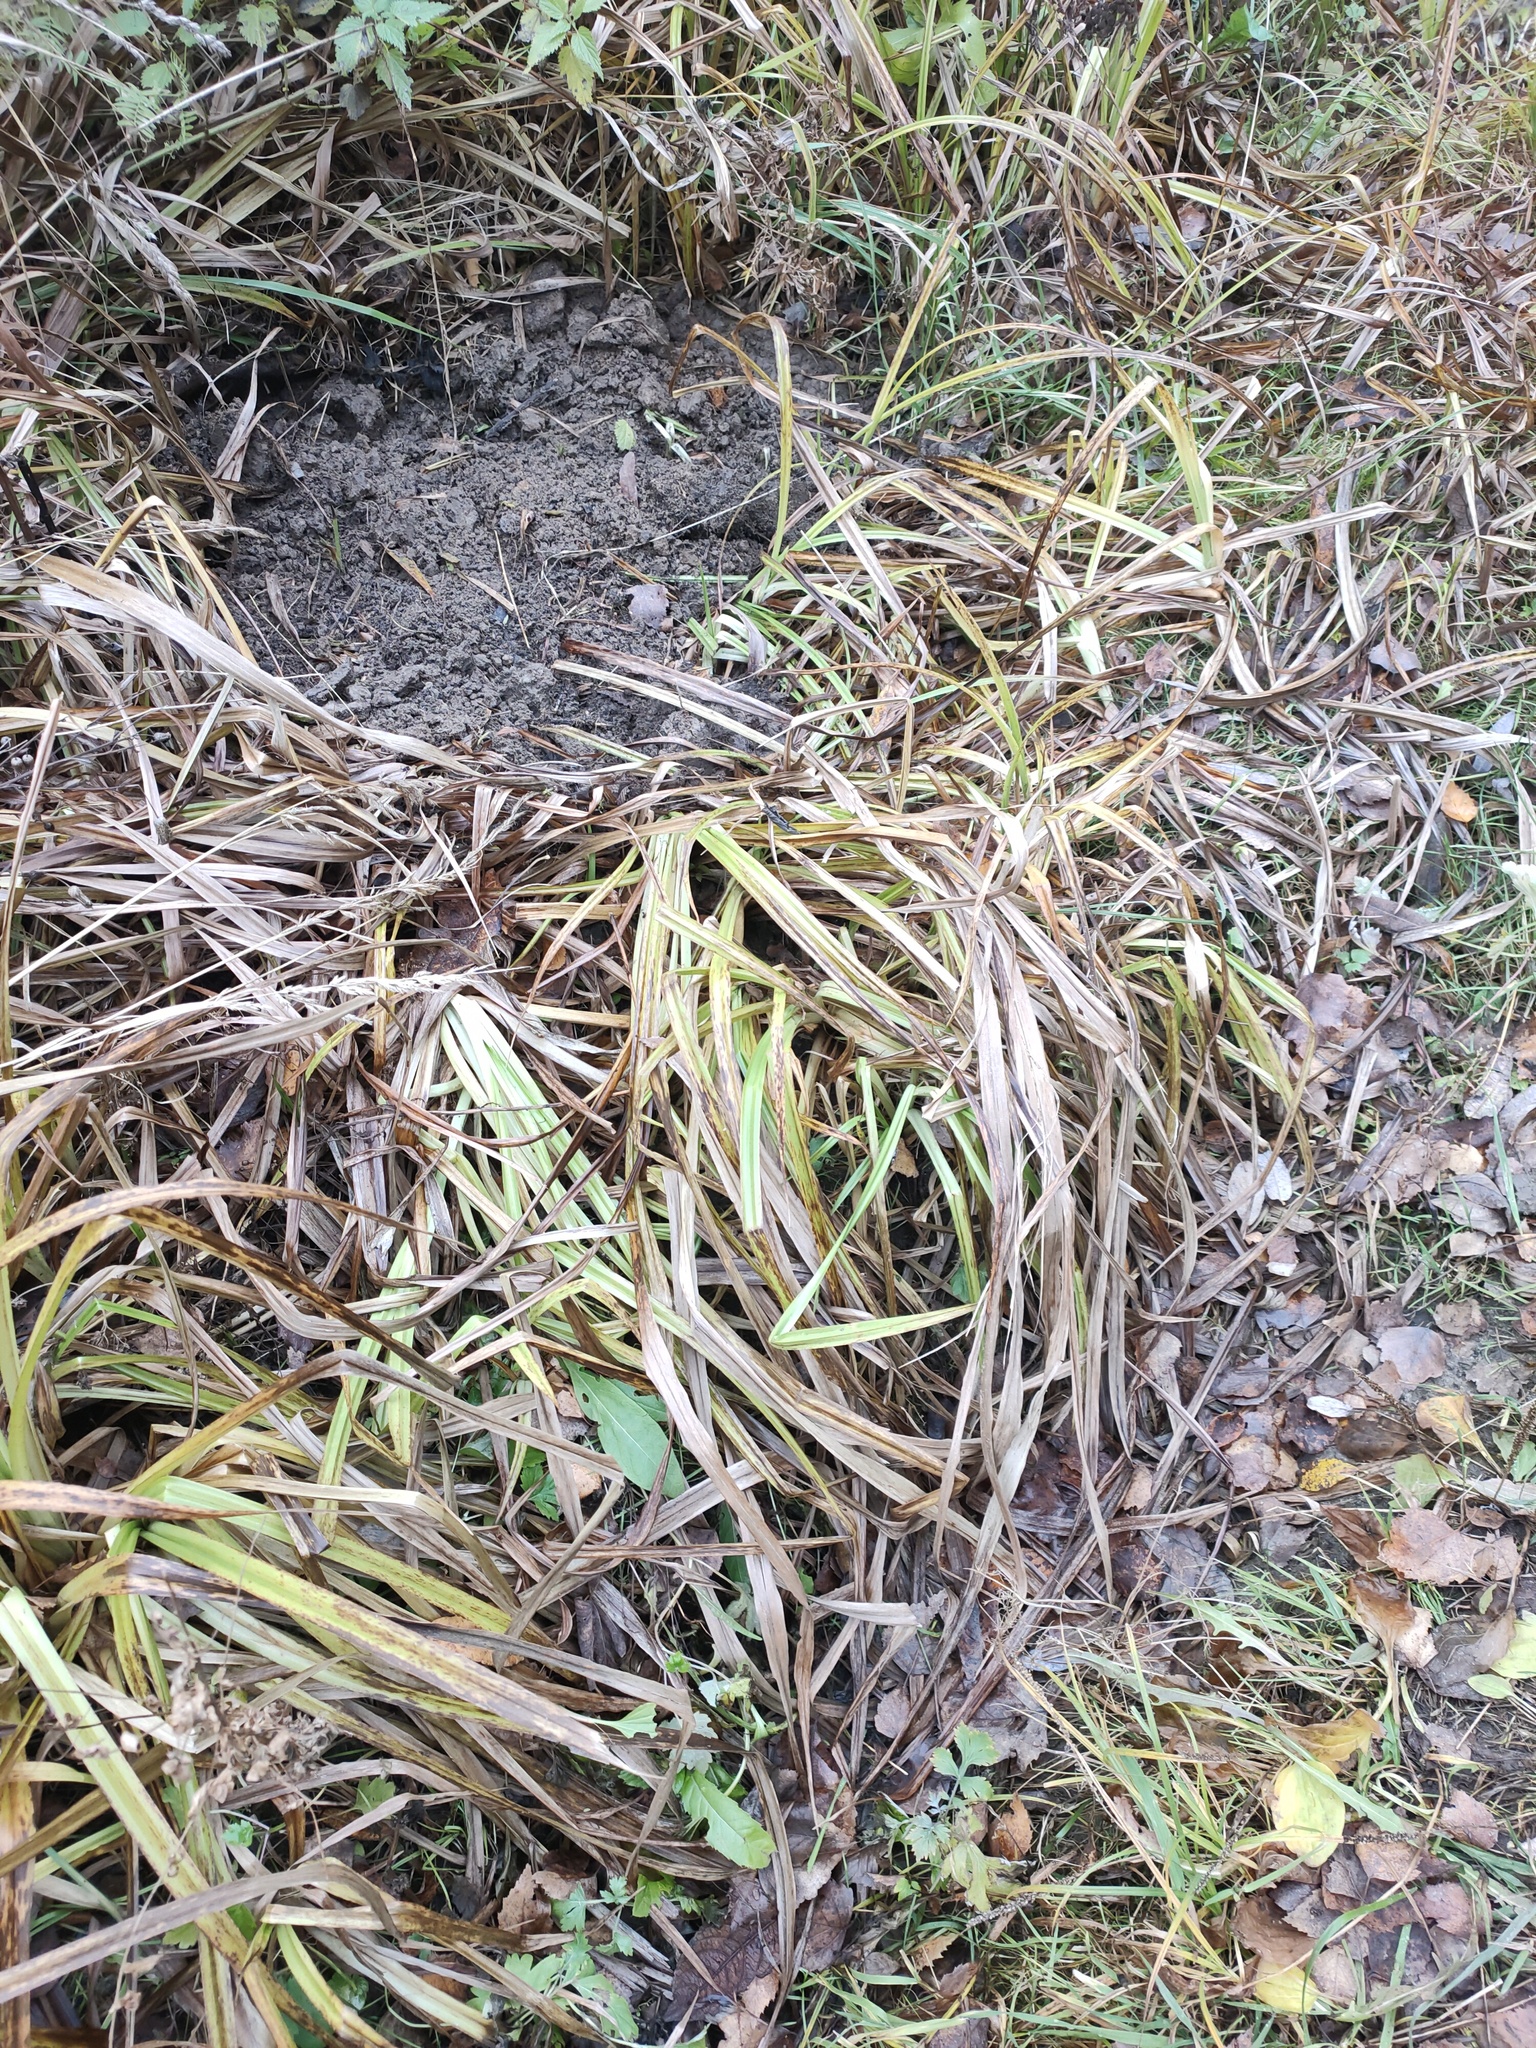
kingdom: Plantae
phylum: Tracheophyta
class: Liliopsida
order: Poales
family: Cyperaceae
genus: Scirpus
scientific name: Scirpus sylvaticus
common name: Wood club-rush
